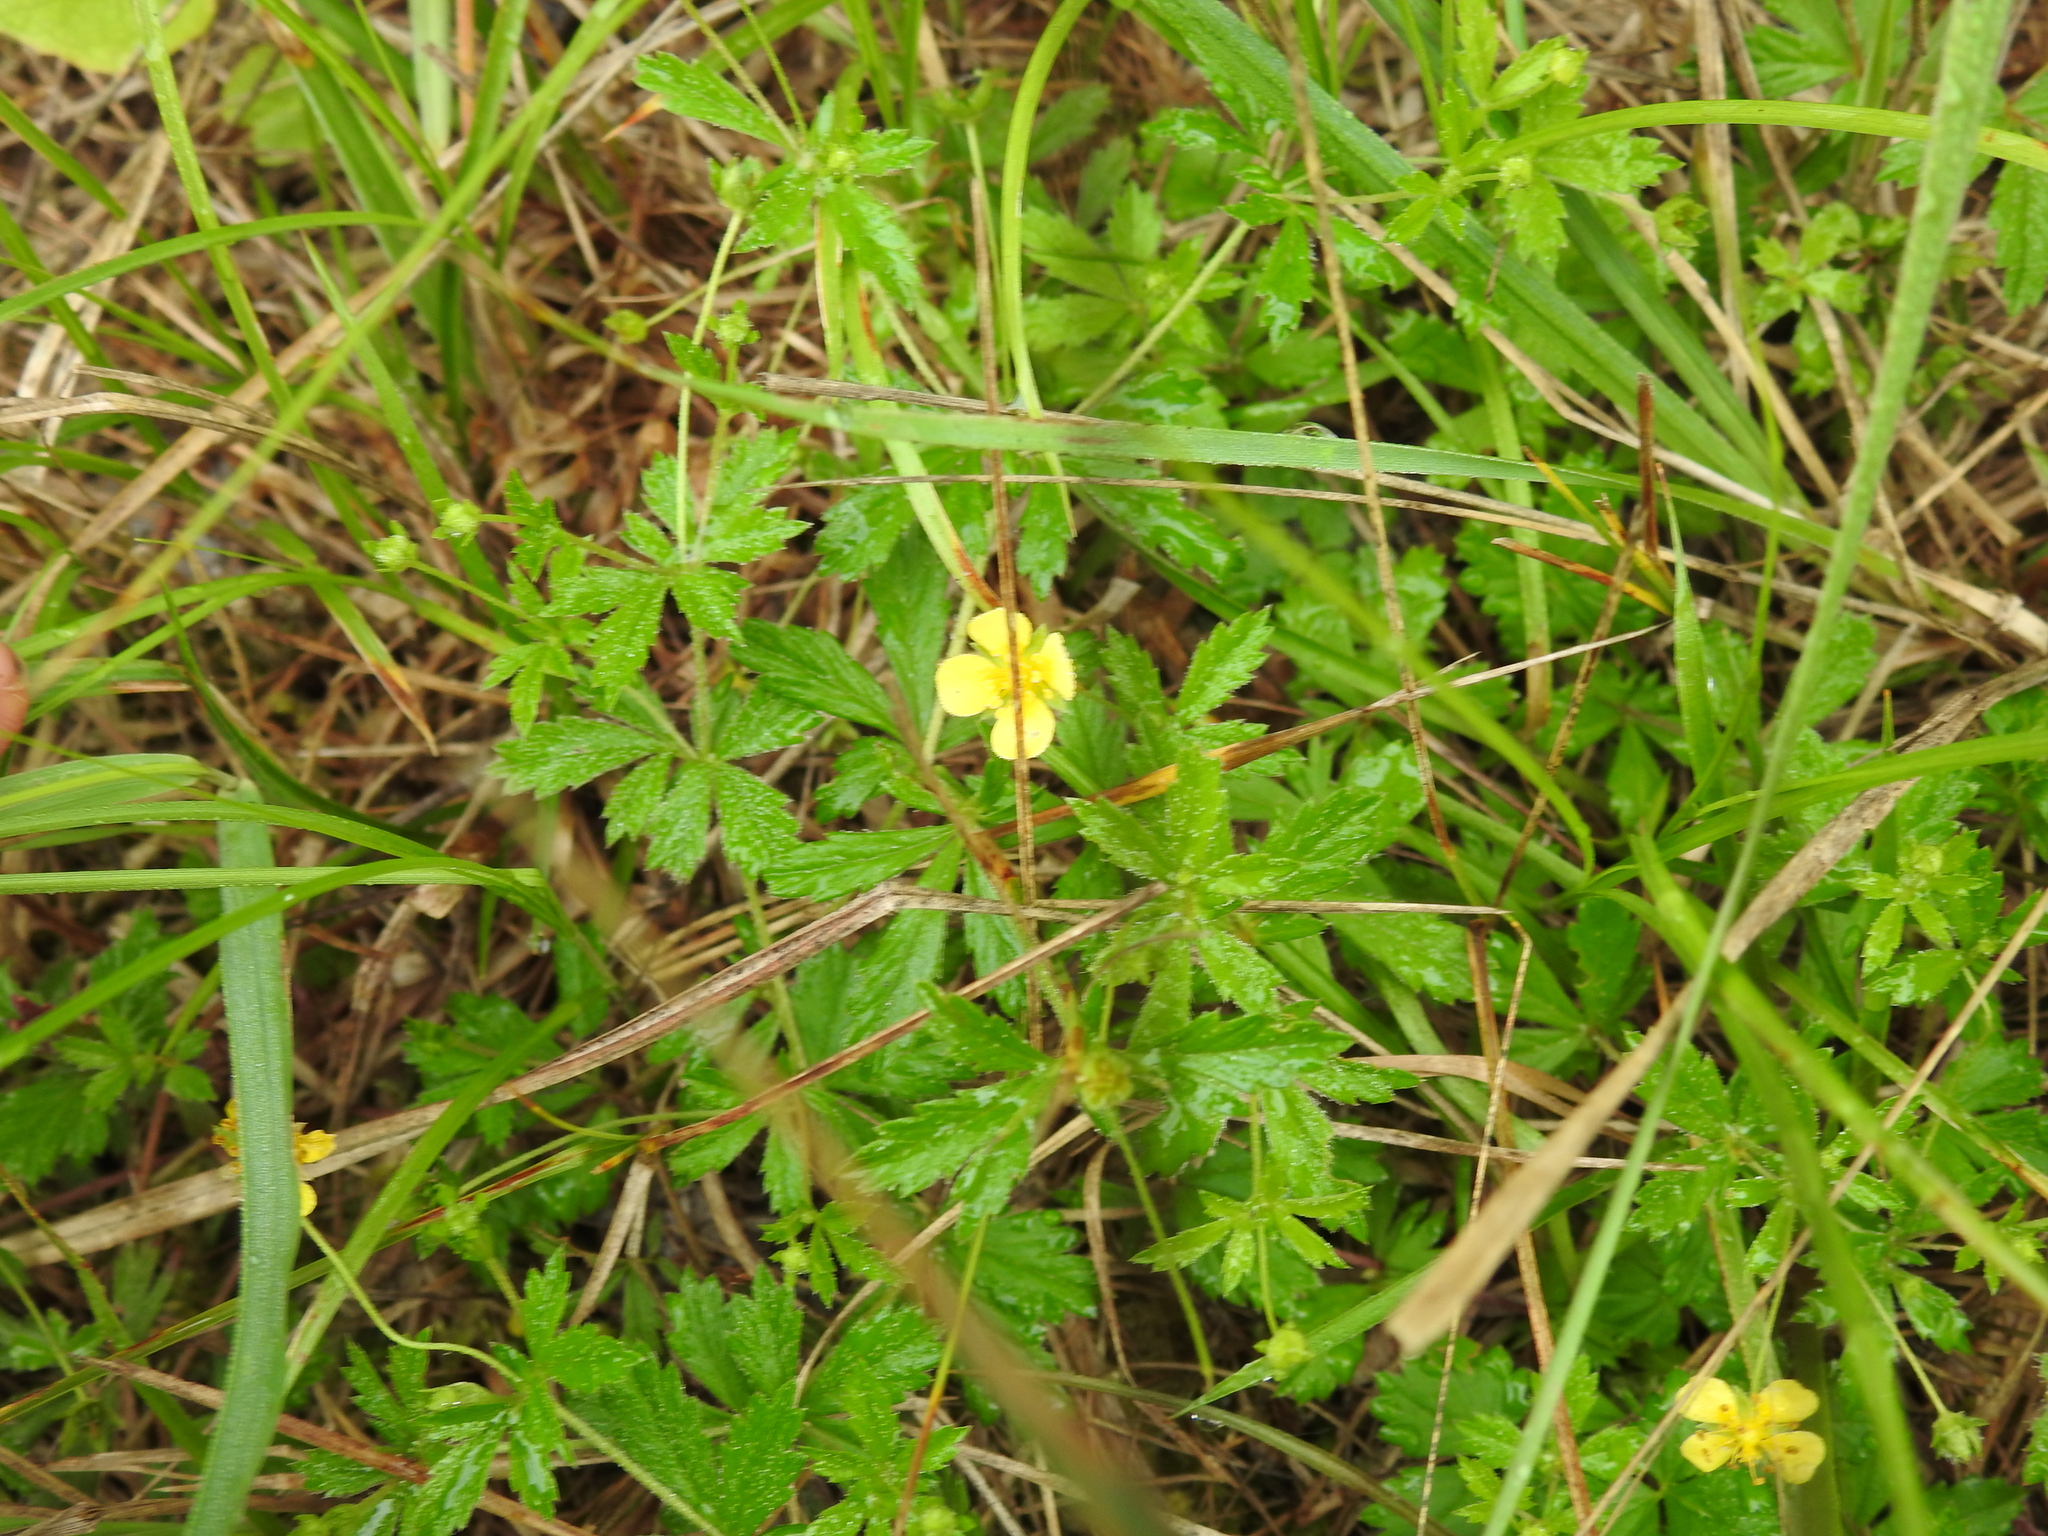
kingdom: Plantae
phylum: Tracheophyta
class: Magnoliopsida
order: Rosales
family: Rosaceae
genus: Potentilla
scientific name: Potentilla erecta
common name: Tormentil
